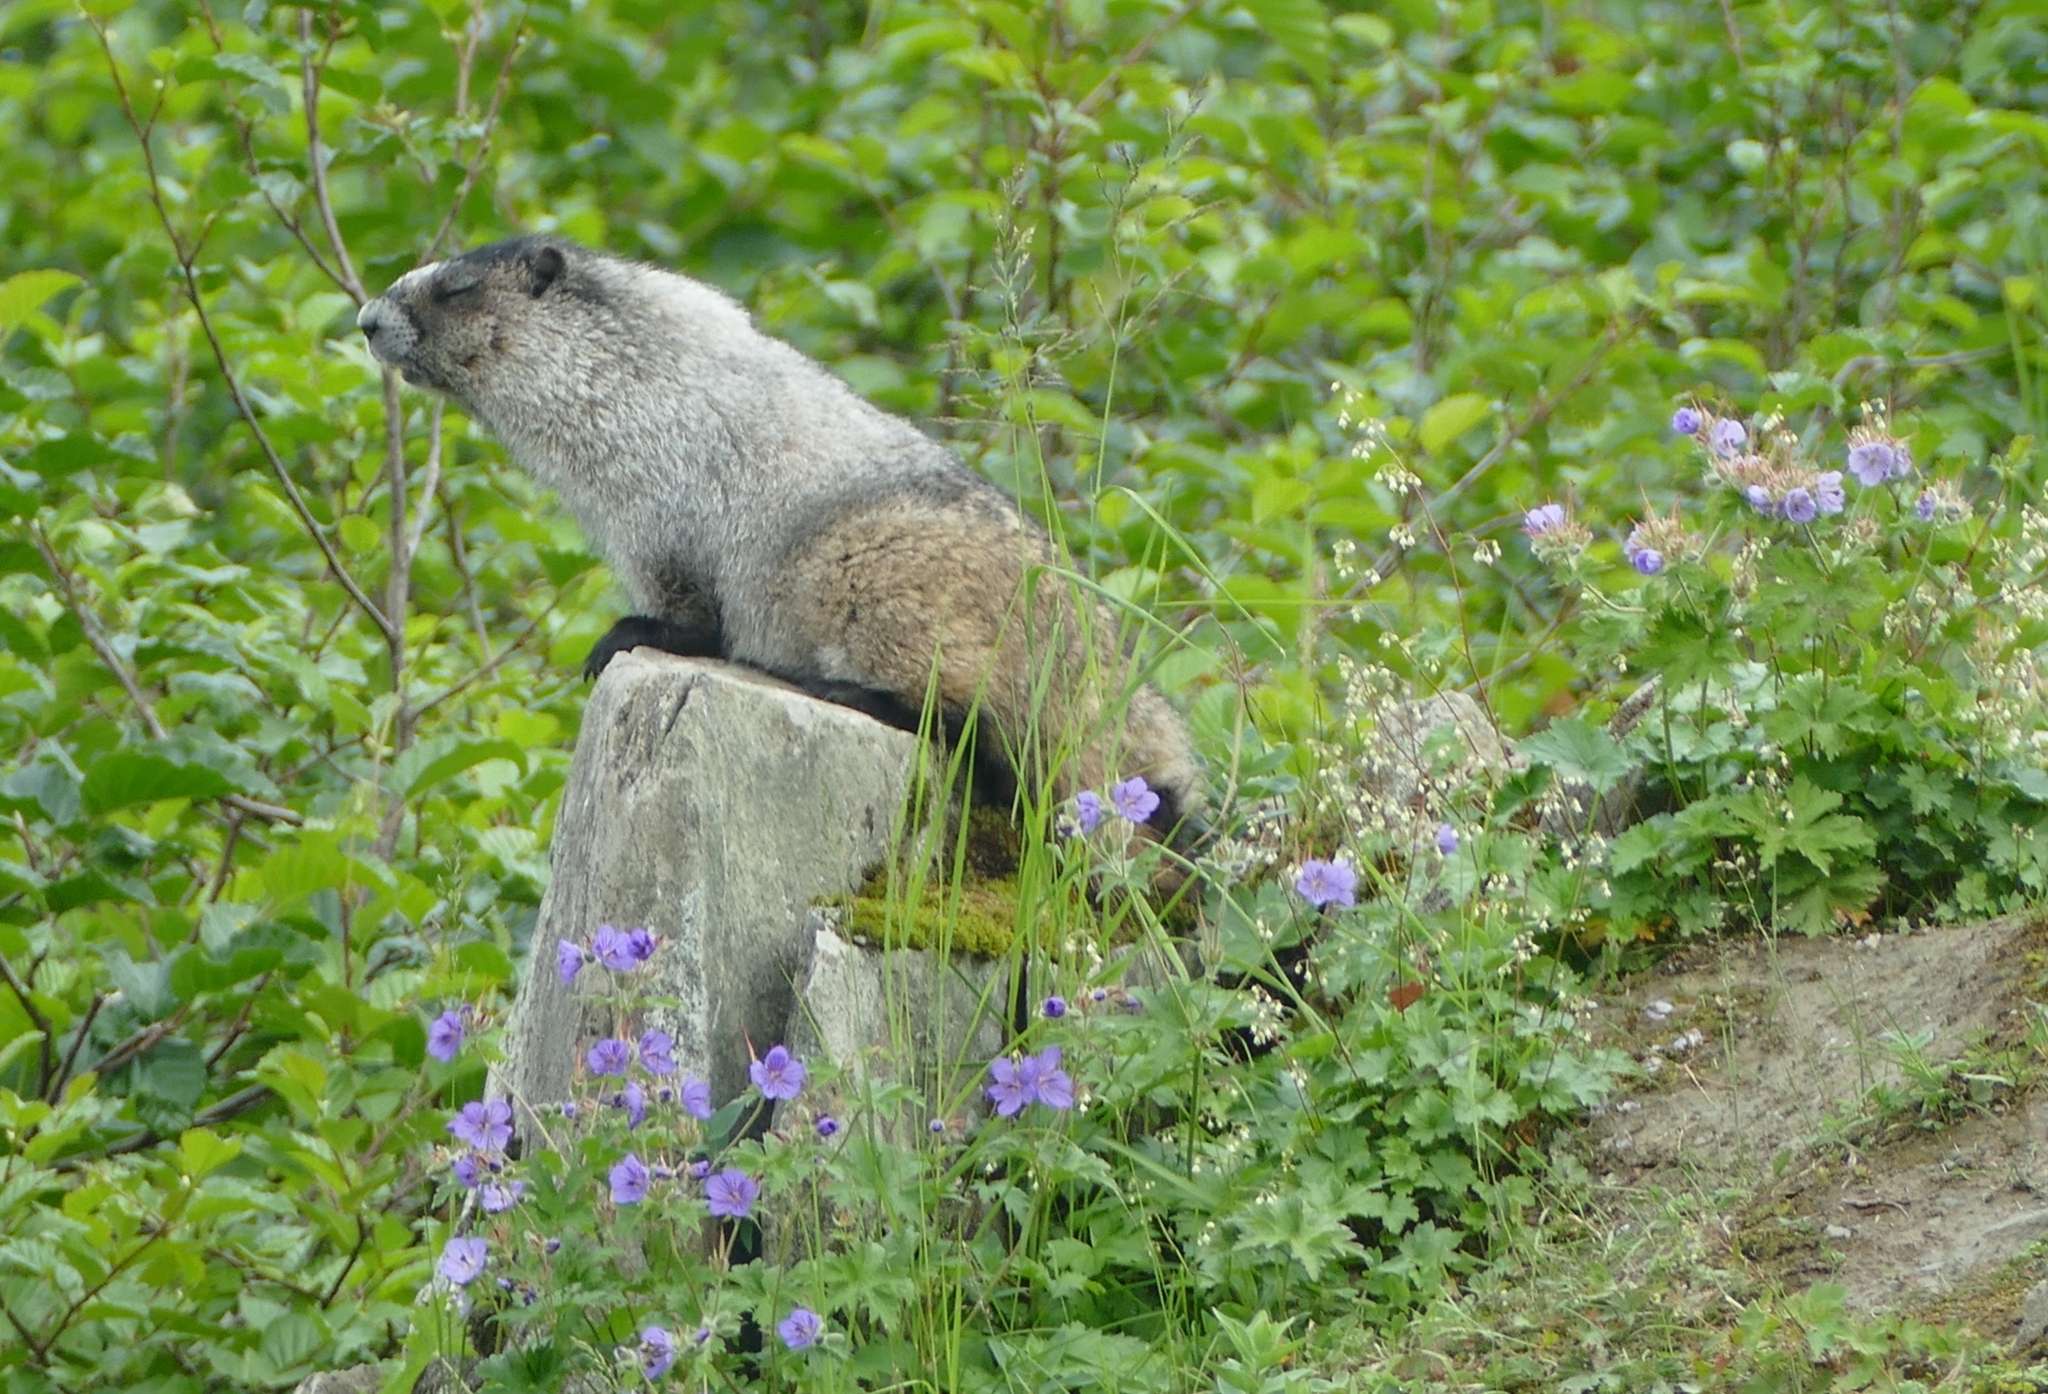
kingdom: Animalia
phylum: Chordata
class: Mammalia
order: Rodentia
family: Sciuridae
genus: Marmota
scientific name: Marmota caligata
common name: Hoary marmot
